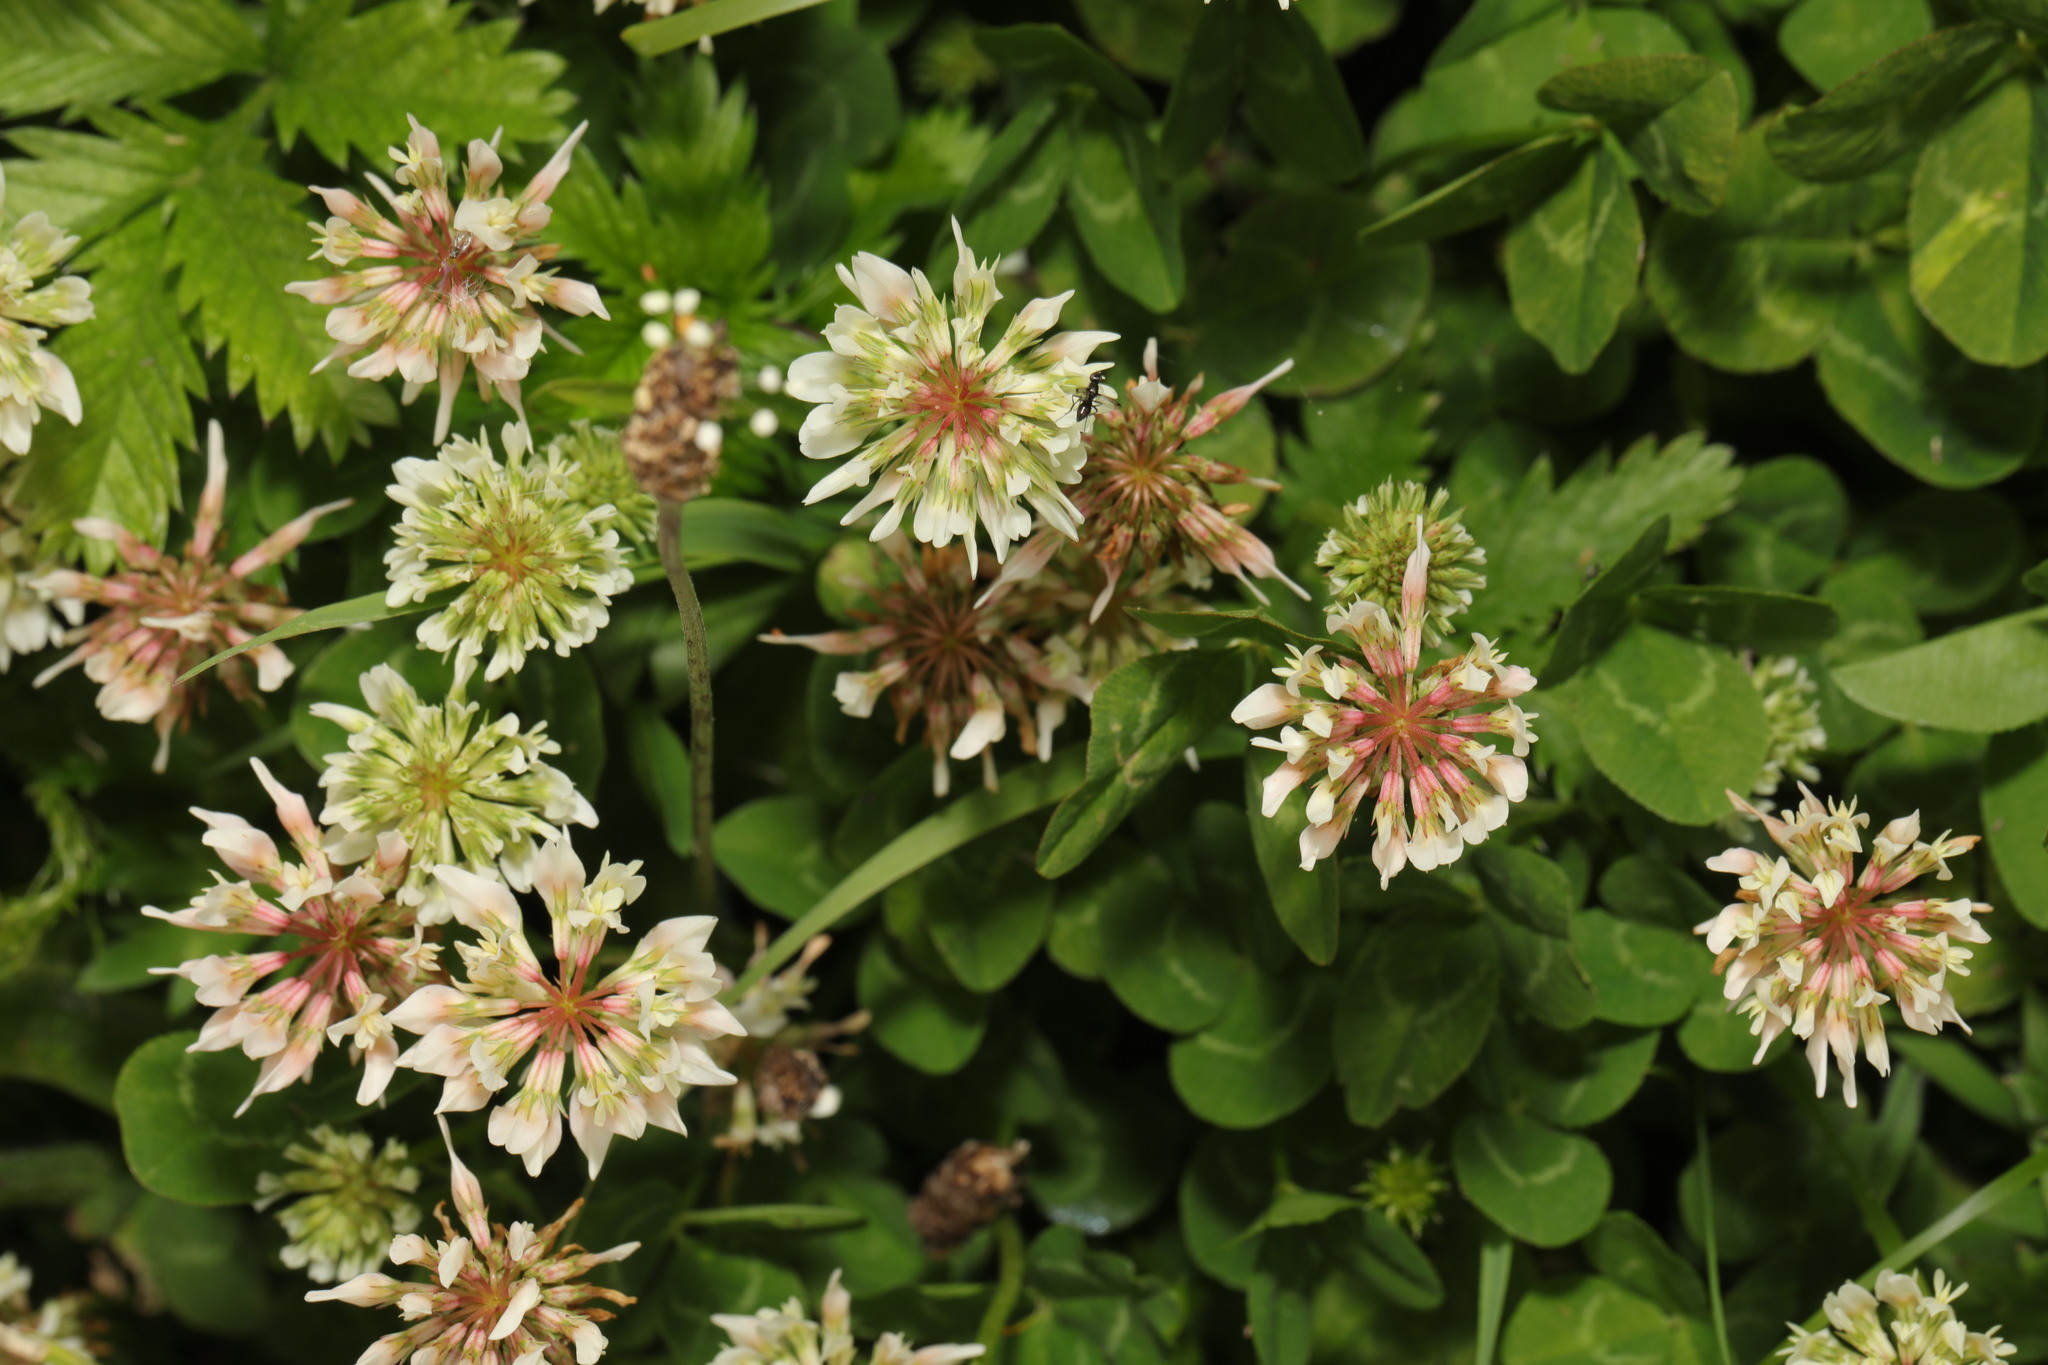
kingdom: Plantae
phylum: Tracheophyta
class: Magnoliopsida
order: Fabales
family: Fabaceae
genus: Trifolium
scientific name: Trifolium repens
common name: White clover
